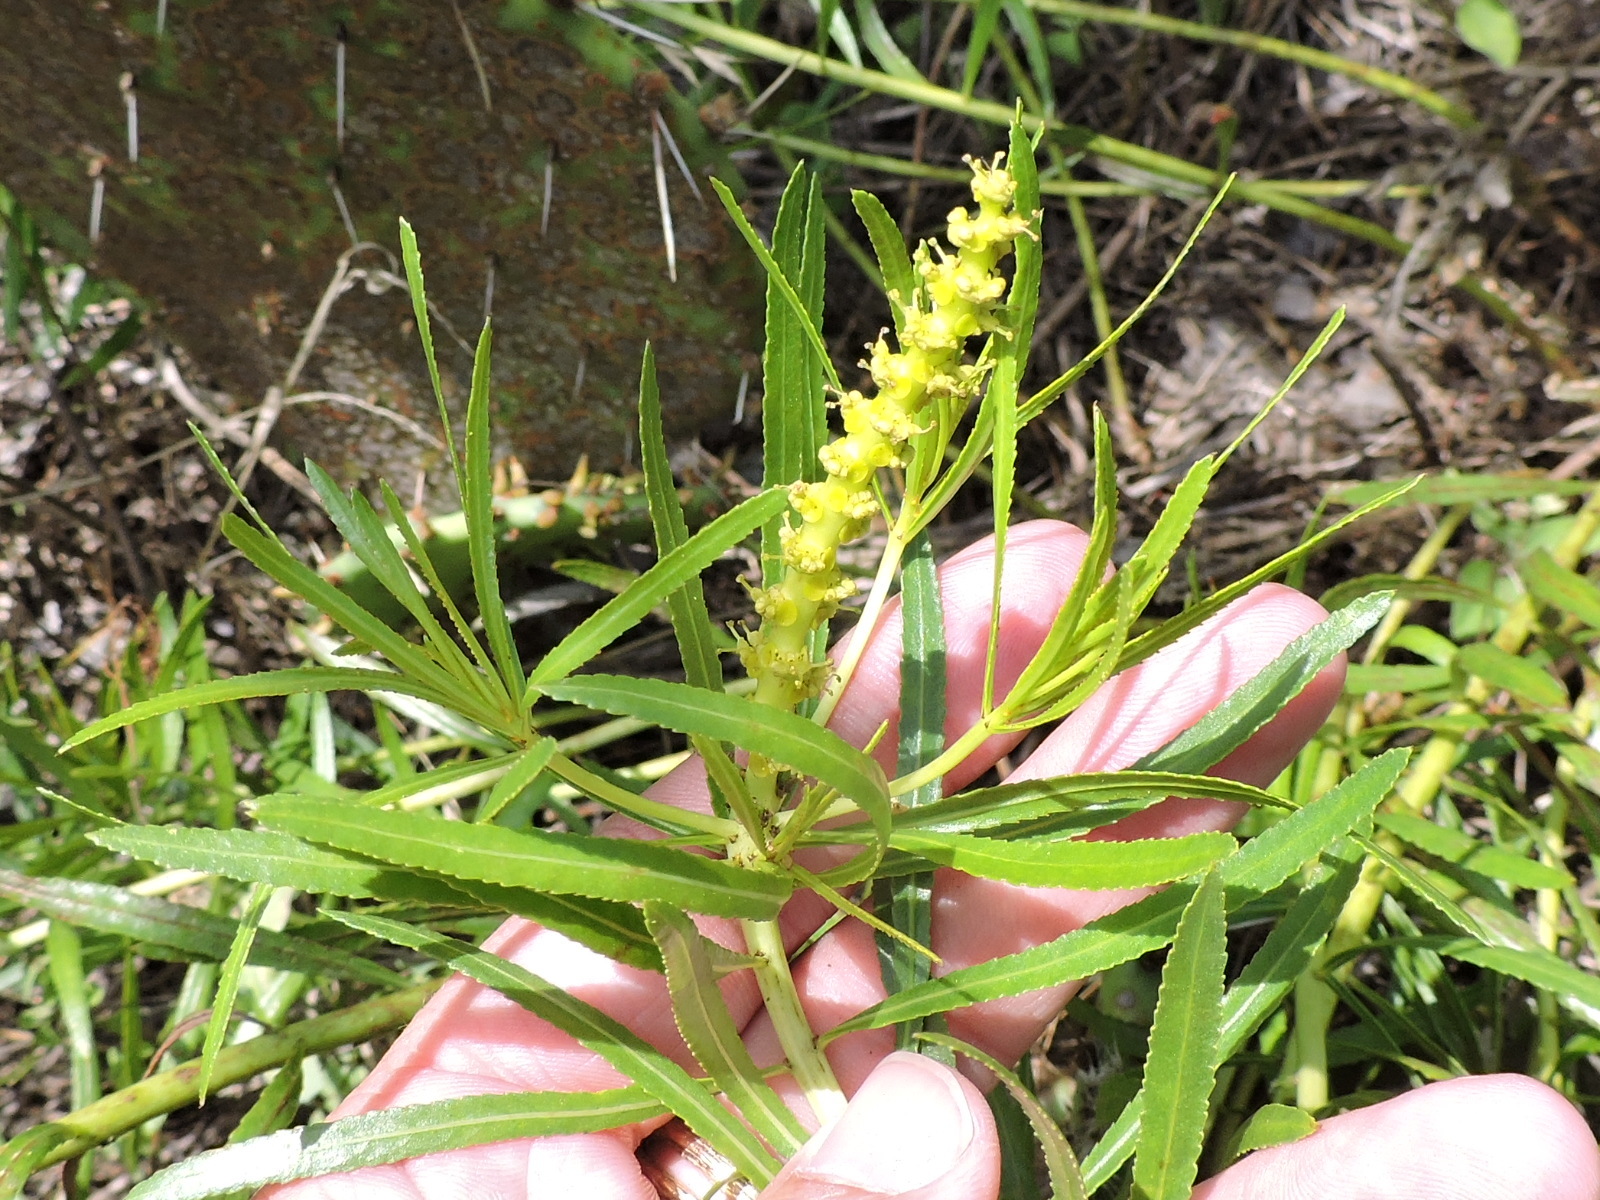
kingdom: Plantae
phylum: Tracheophyta
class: Magnoliopsida
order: Malpighiales
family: Euphorbiaceae
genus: Stillingia
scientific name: Stillingia texana
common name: Texas stillingia
